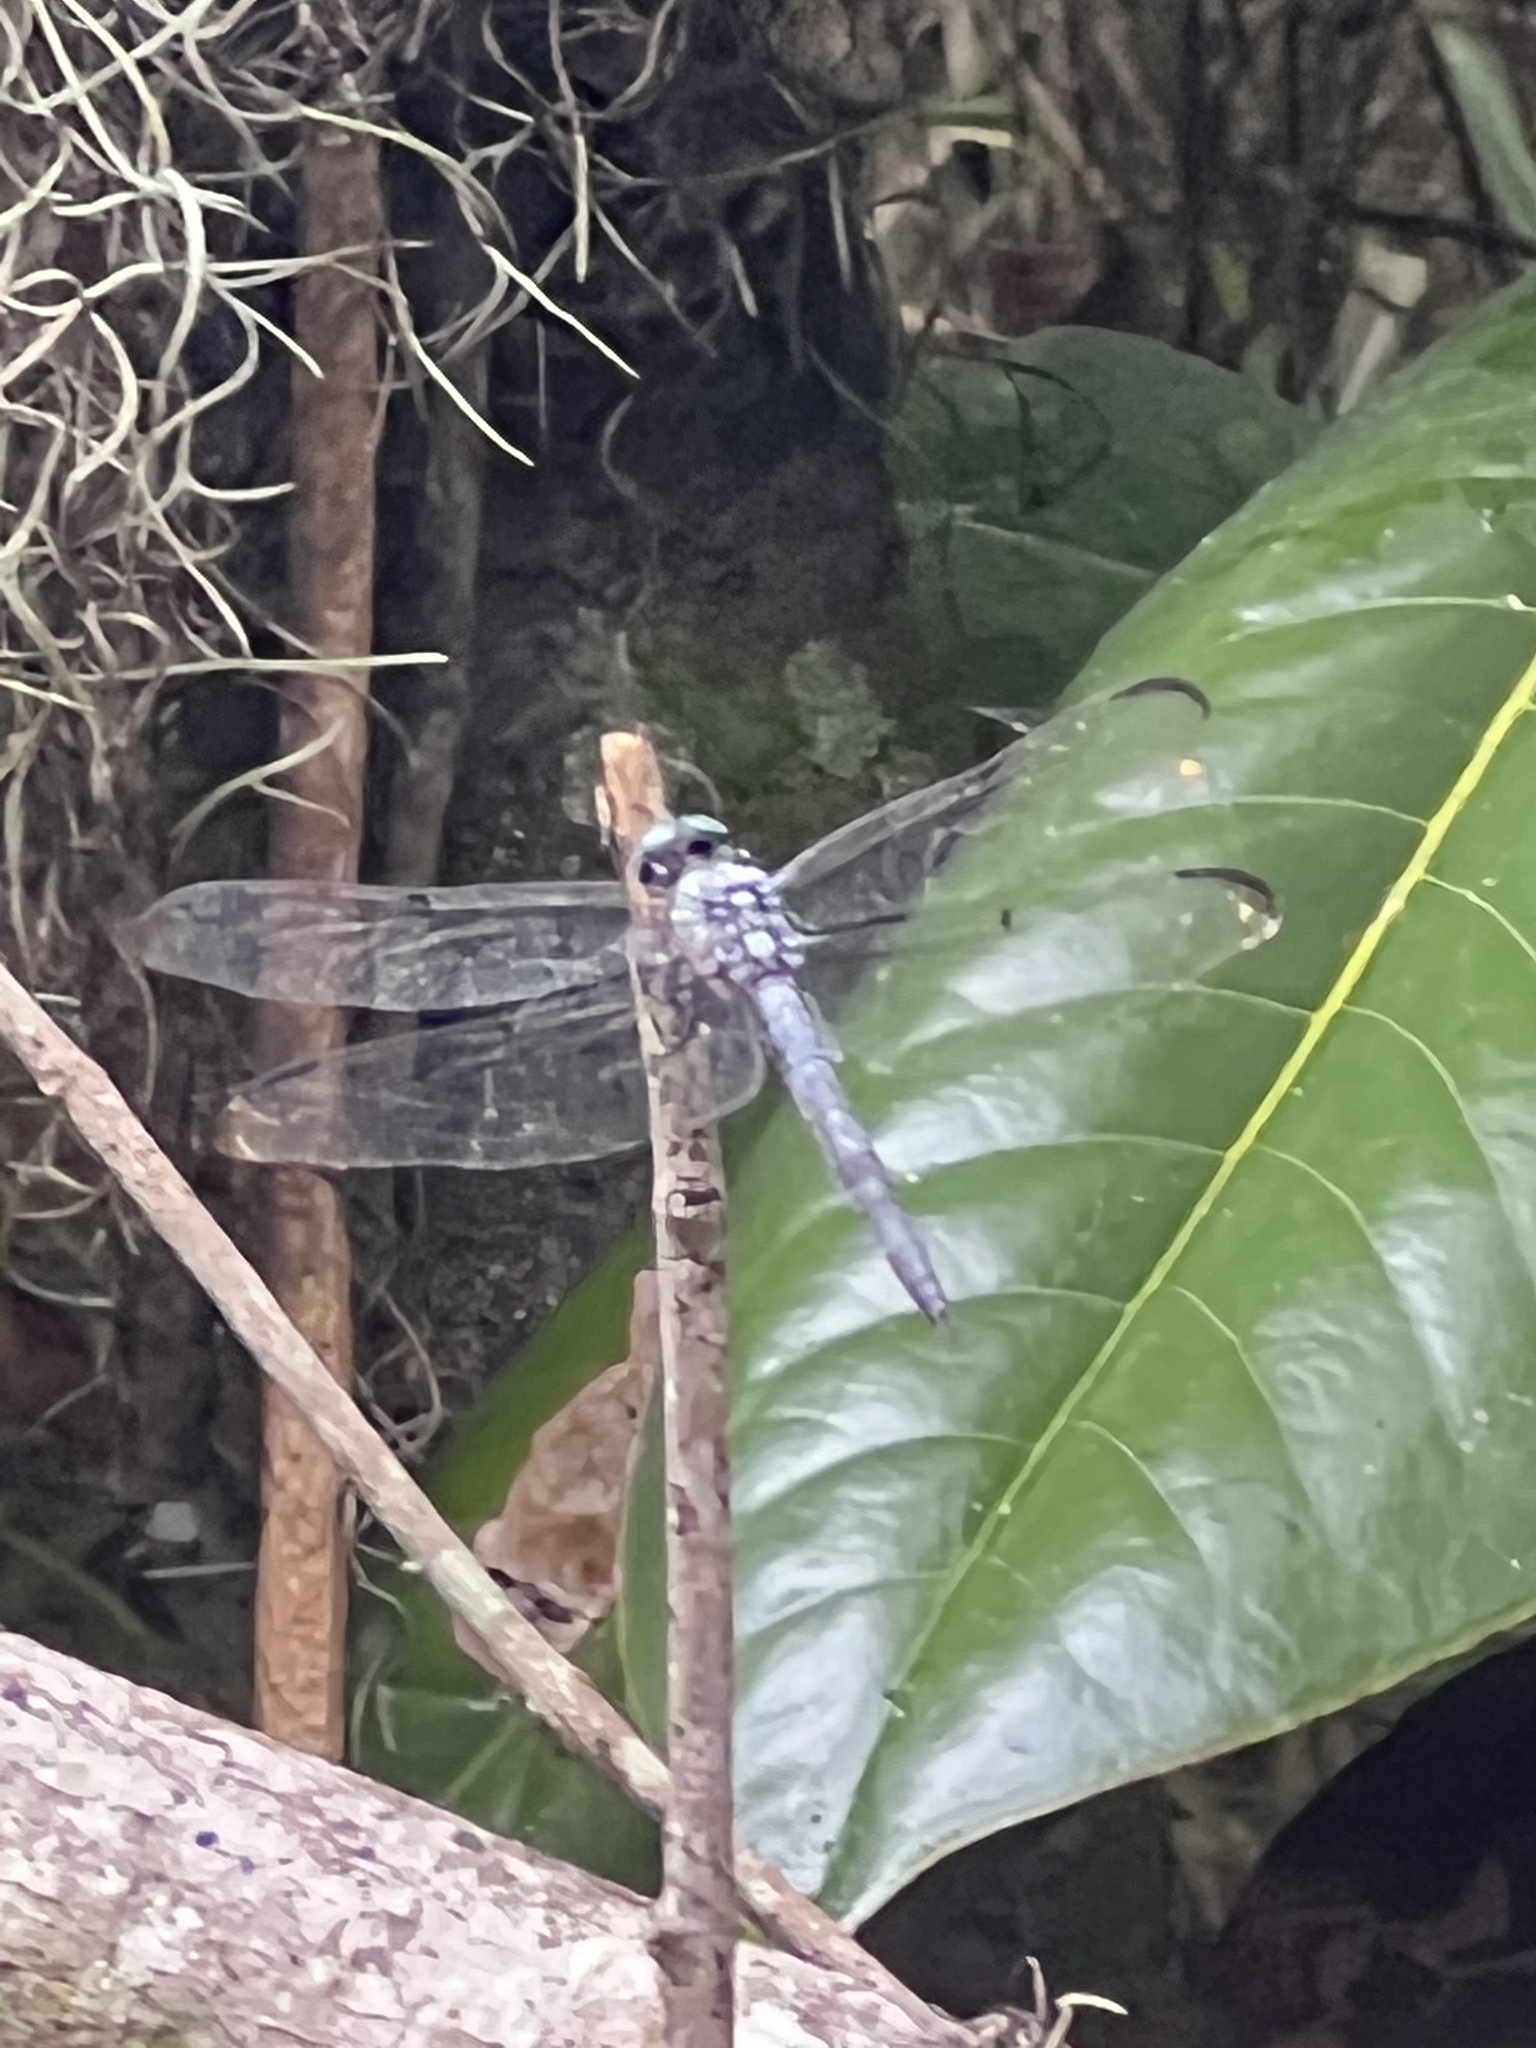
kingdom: Animalia
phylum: Arthropoda
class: Insecta
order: Odonata
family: Libellulidae
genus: Libellula
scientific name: Libellula vibrans
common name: Great blue skimmer
